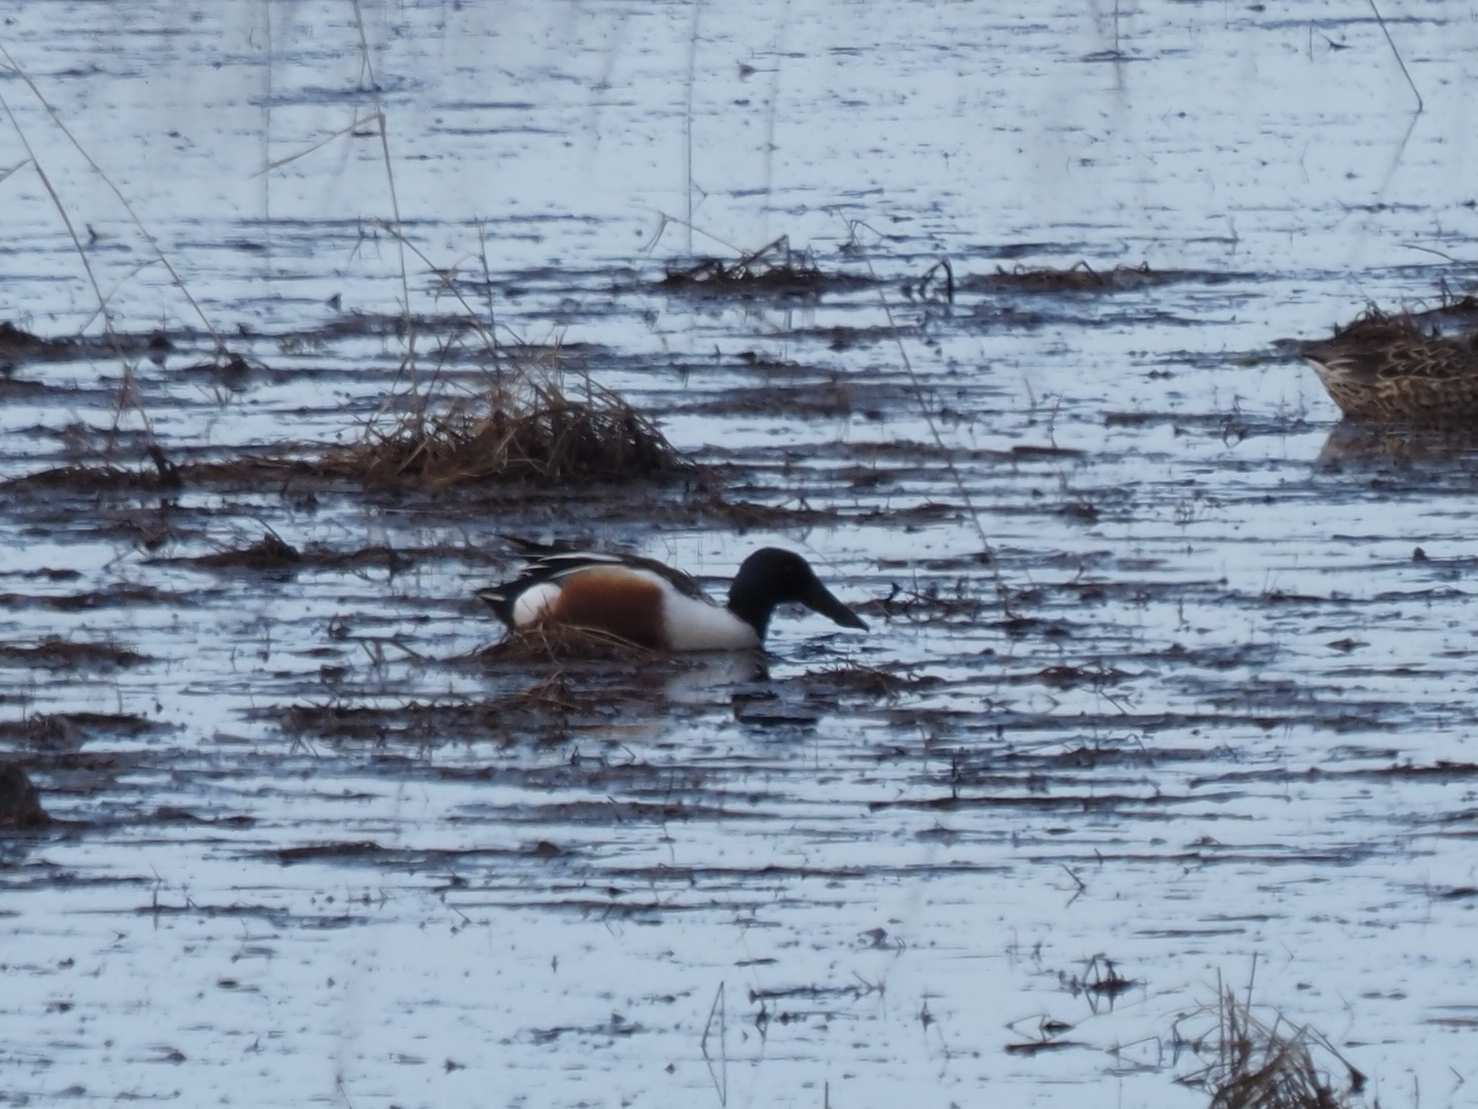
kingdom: Animalia
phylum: Chordata
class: Aves
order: Anseriformes
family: Anatidae
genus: Spatula
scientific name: Spatula clypeata
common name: Northern shoveler
